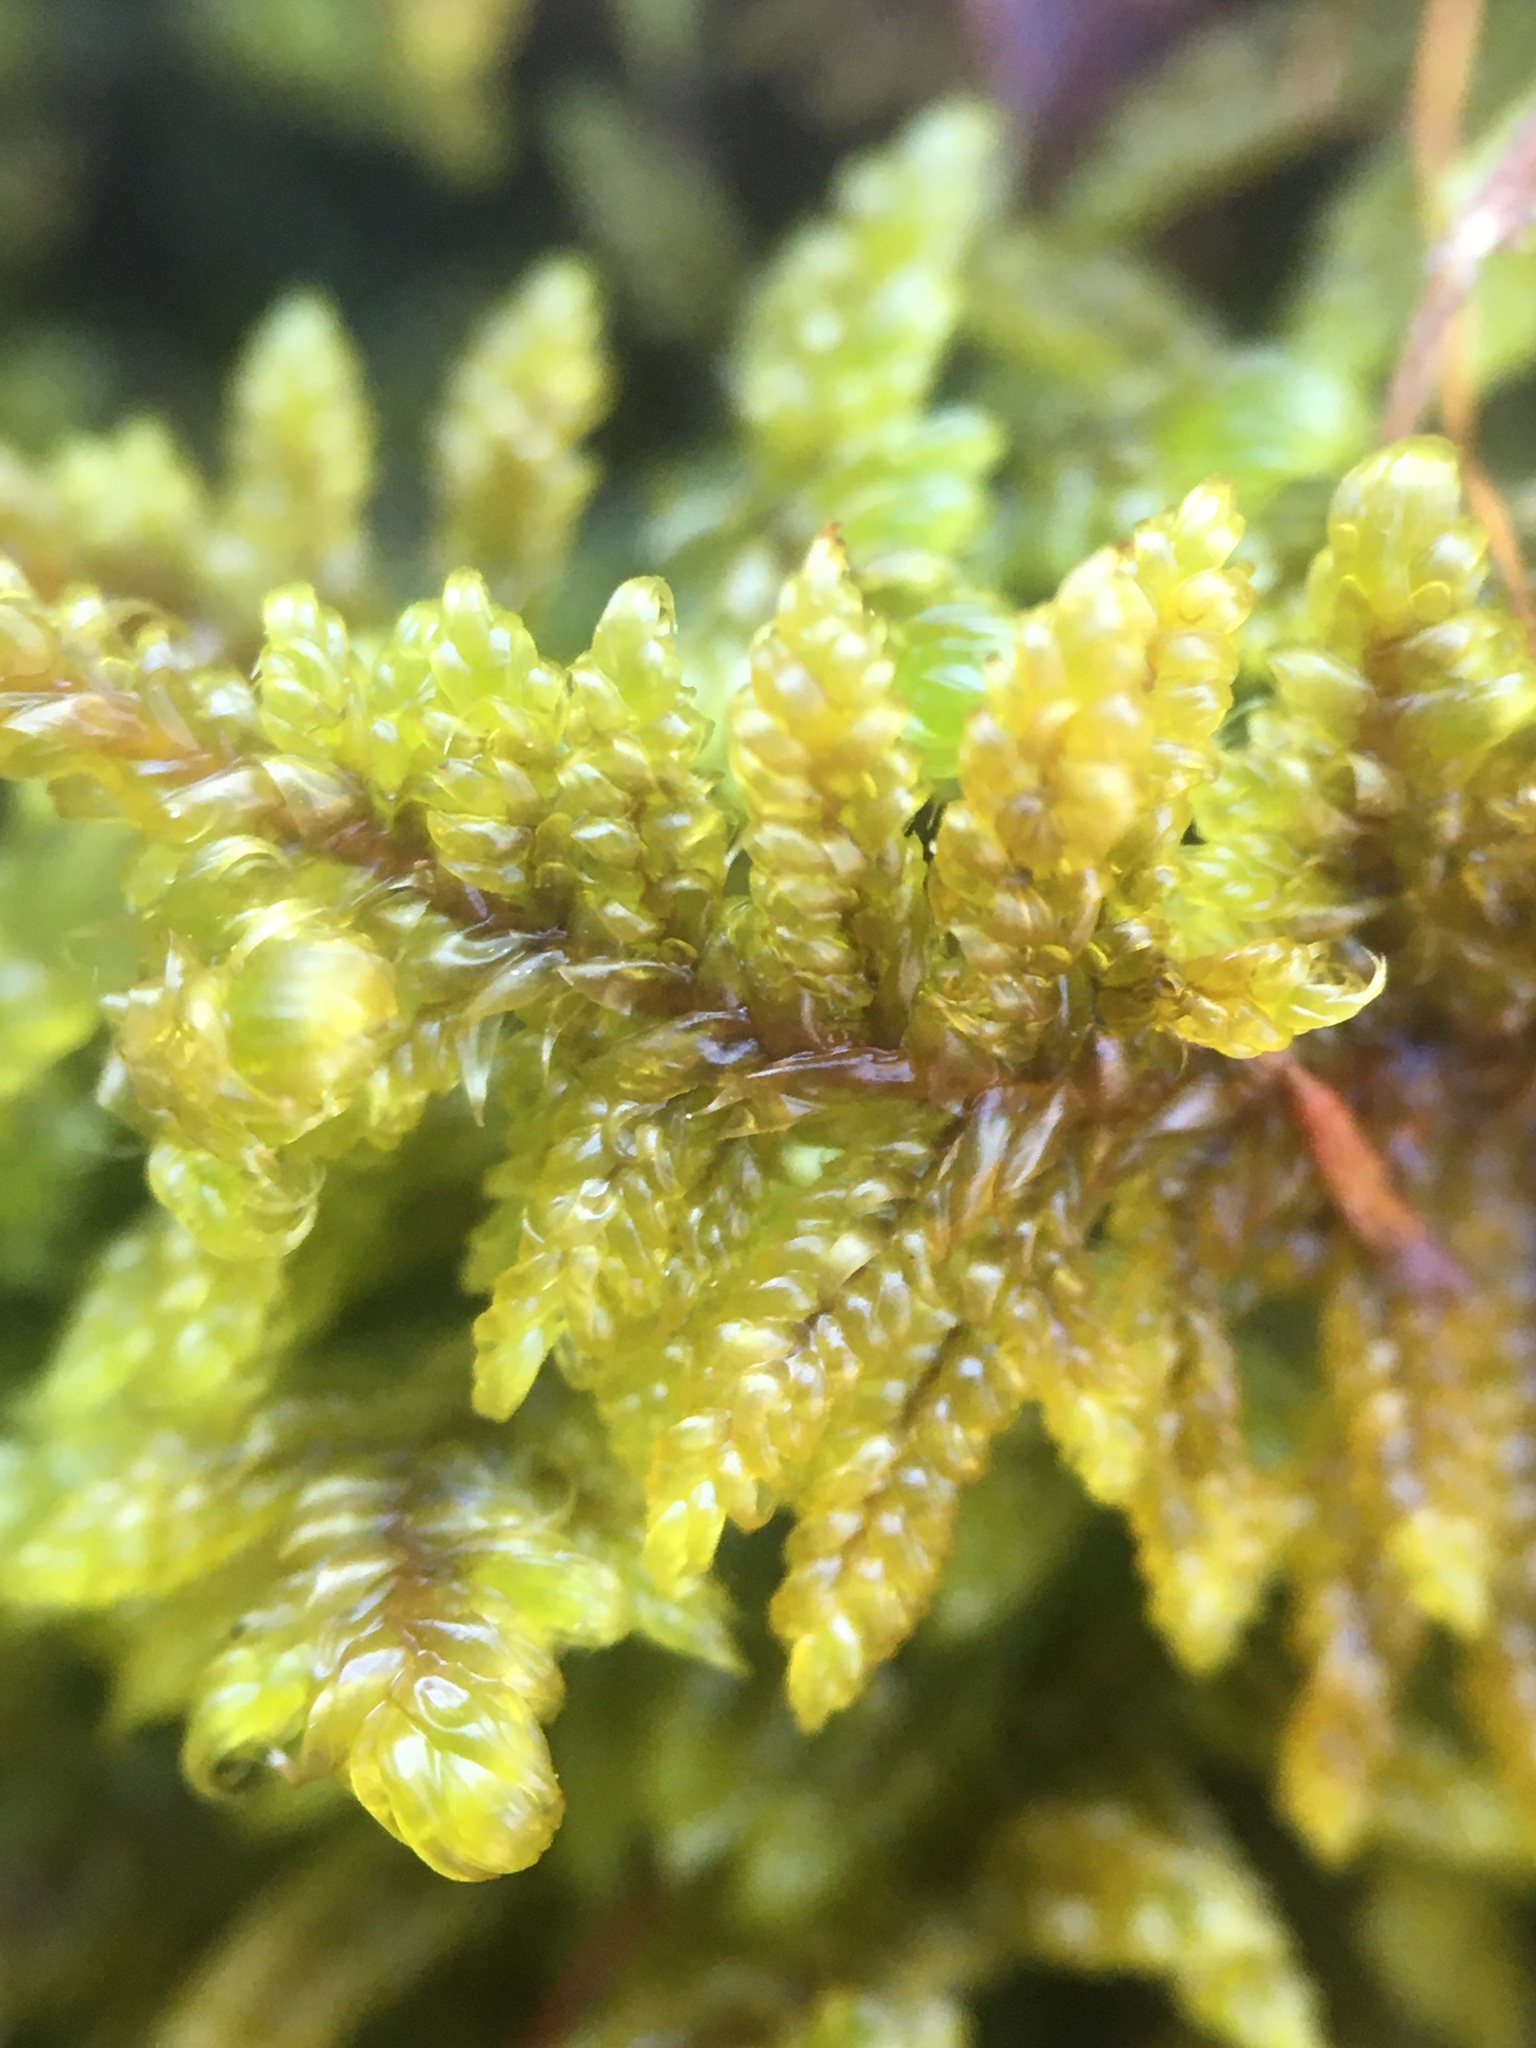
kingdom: Plantae
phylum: Bryophyta
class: Bryopsida
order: Hypnales
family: Callicladiaceae
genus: Callicladium
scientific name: Callicladium imponens
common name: Brocade moss
